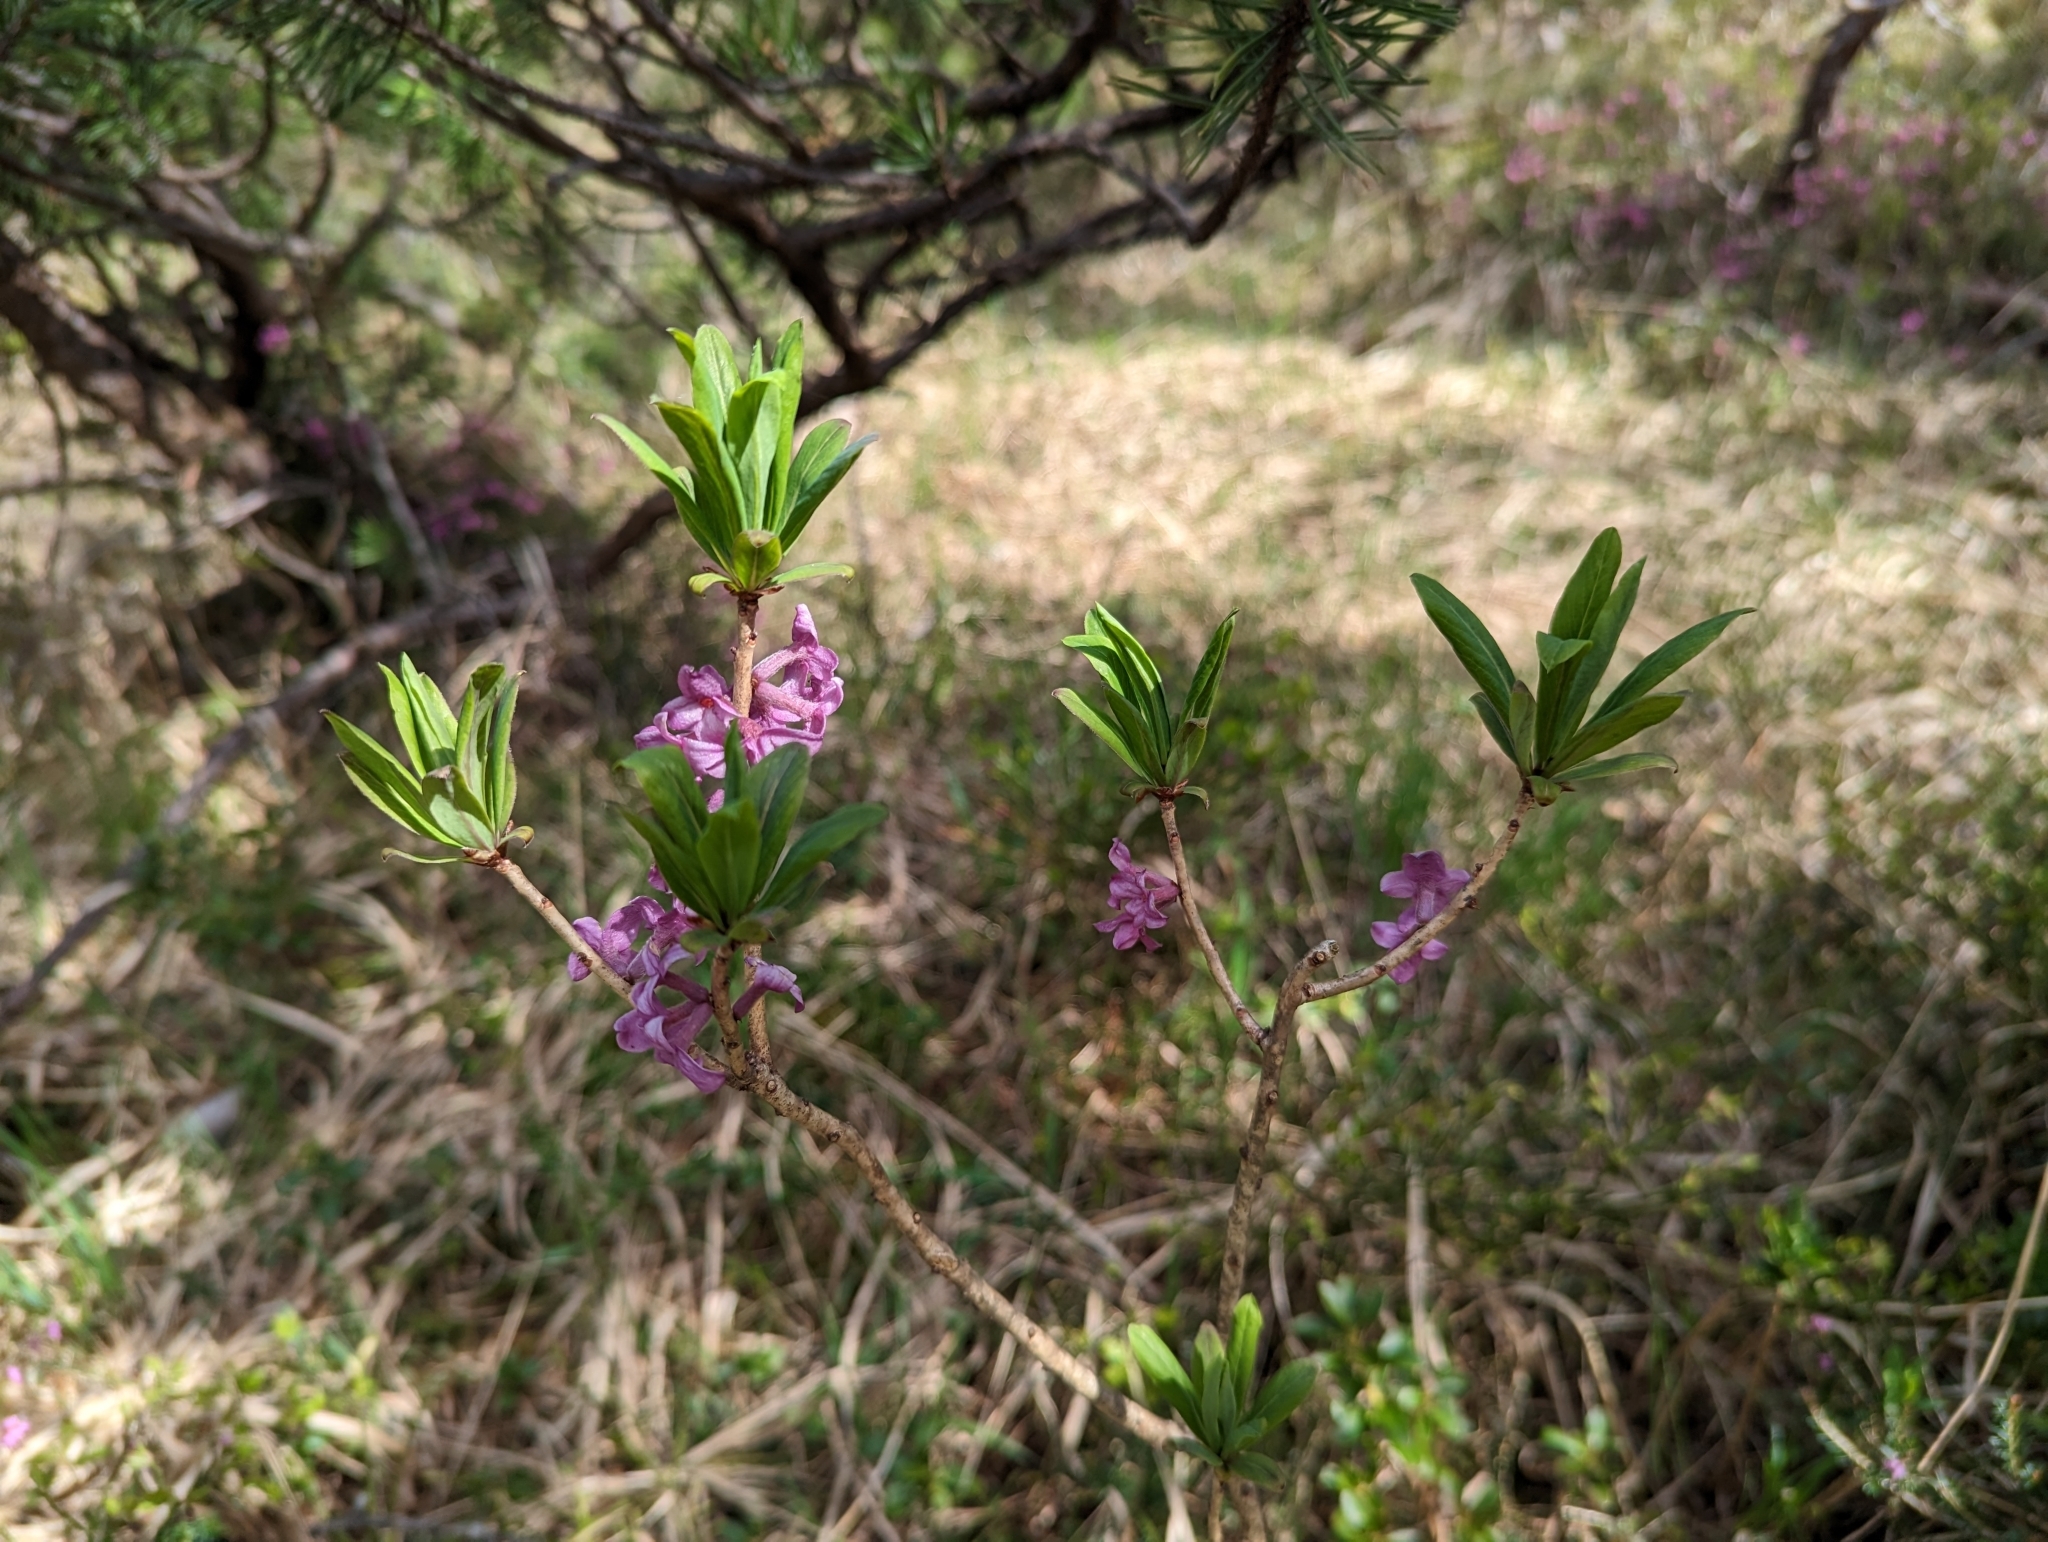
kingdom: Plantae
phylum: Tracheophyta
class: Magnoliopsida
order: Malvales
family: Thymelaeaceae
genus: Daphne
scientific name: Daphne mezereum
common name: Mezereon
